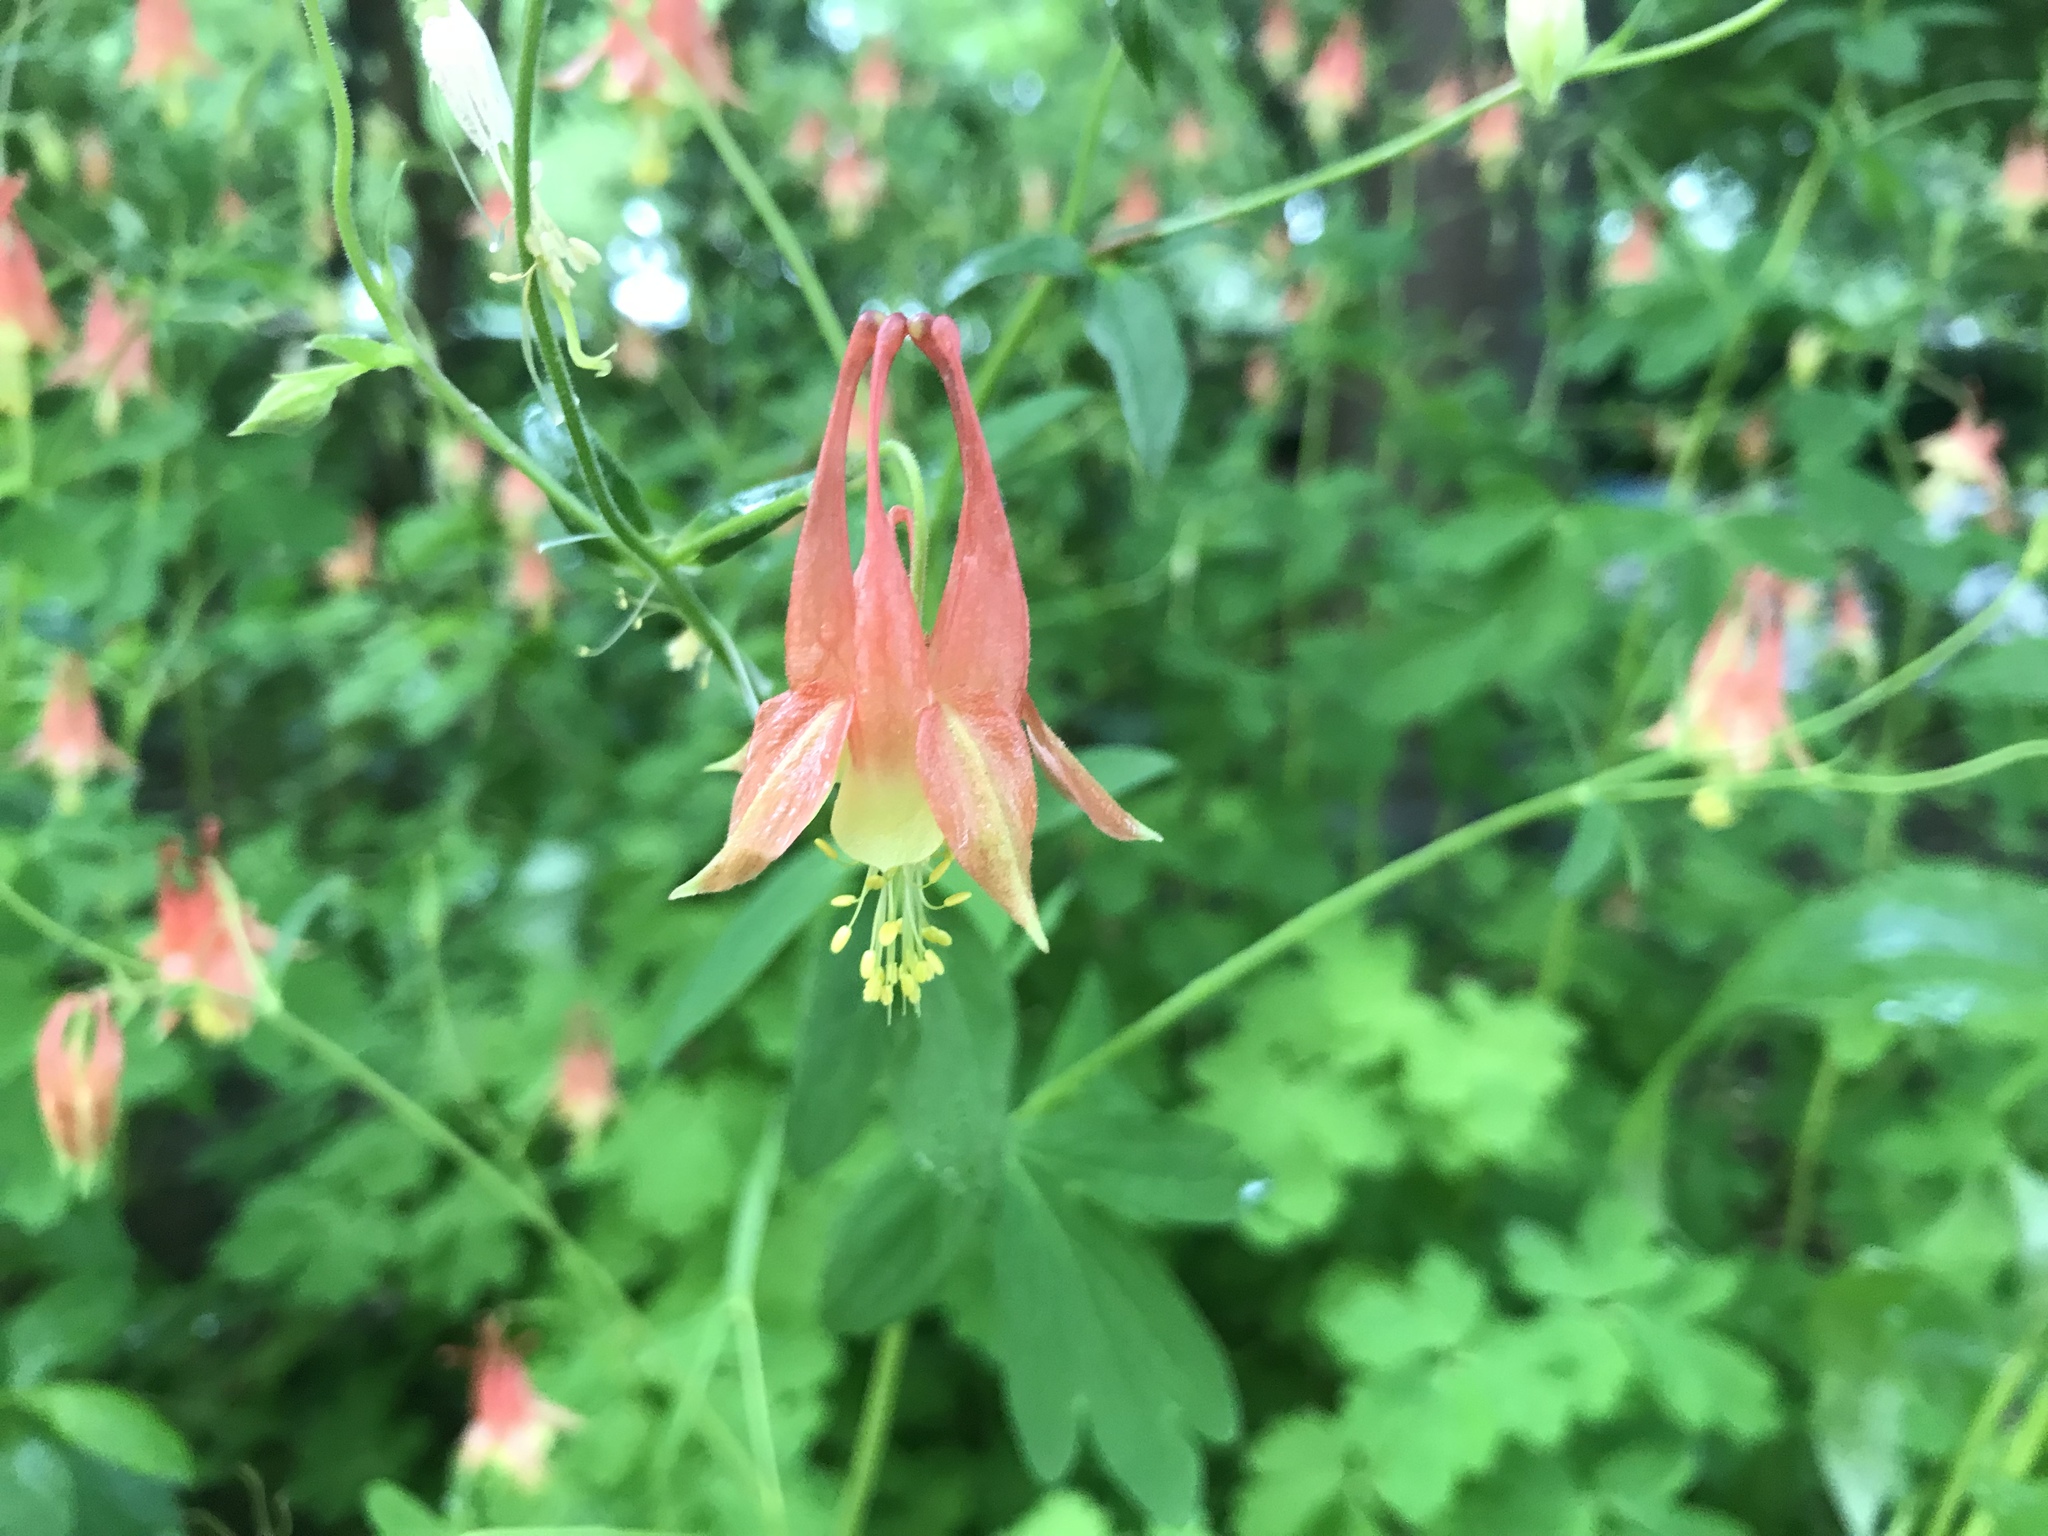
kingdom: Plantae
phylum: Tracheophyta
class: Magnoliopsida
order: Ranunculales
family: Ranunculaceae
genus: Aquilegia
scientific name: Aquilegia canadensis
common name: American columbine
